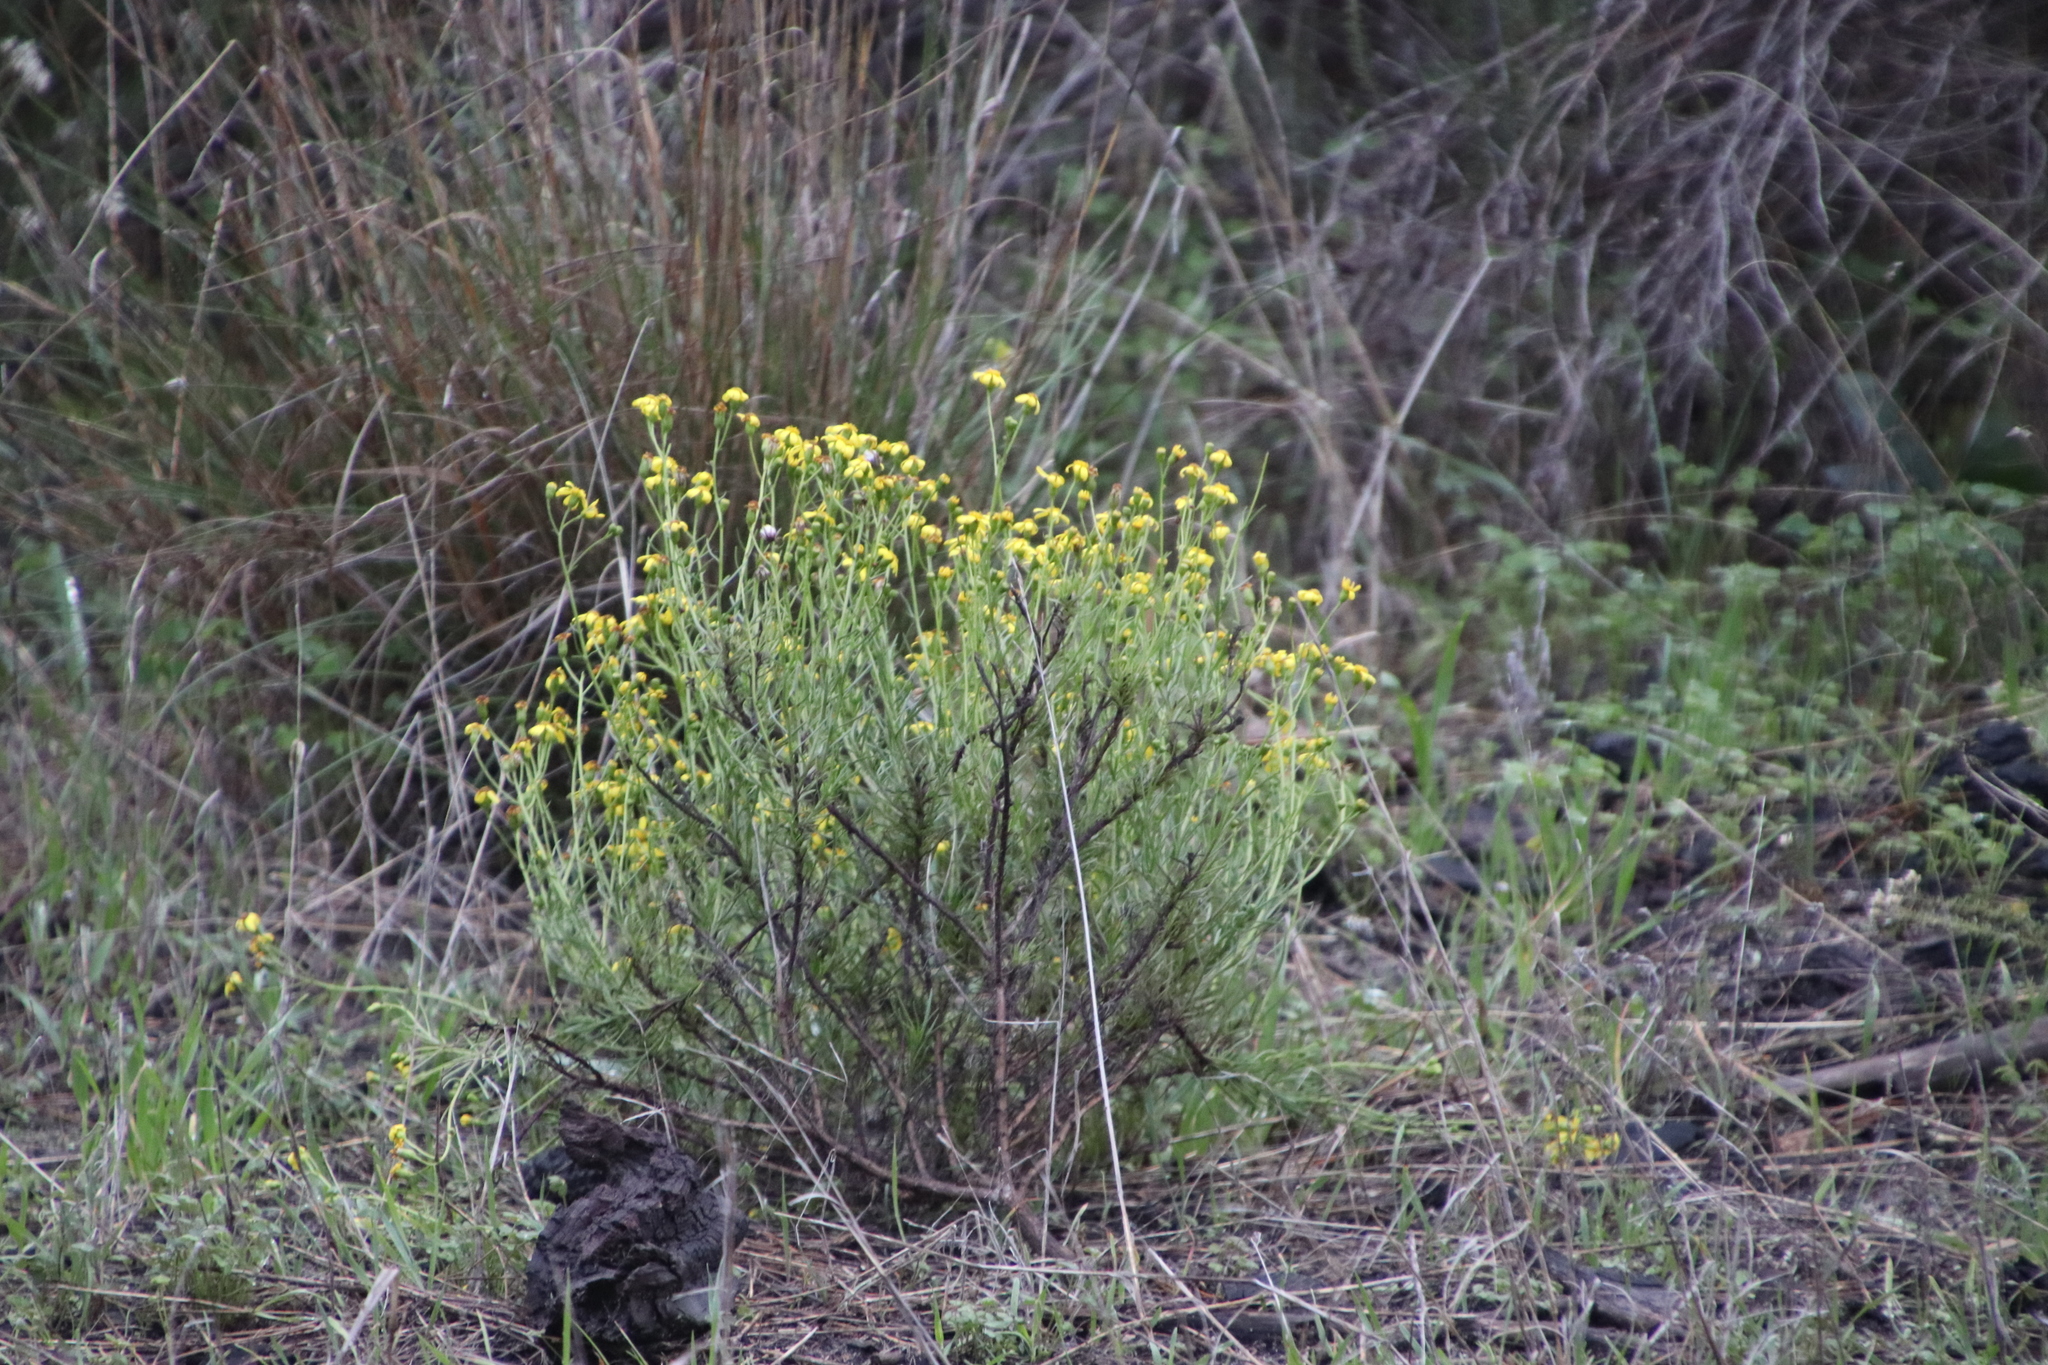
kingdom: Plantae
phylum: Tracheophyta
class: Magnoliopsida
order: Asterales
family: Asteraceae
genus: Senecio
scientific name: Senecio burchellii
